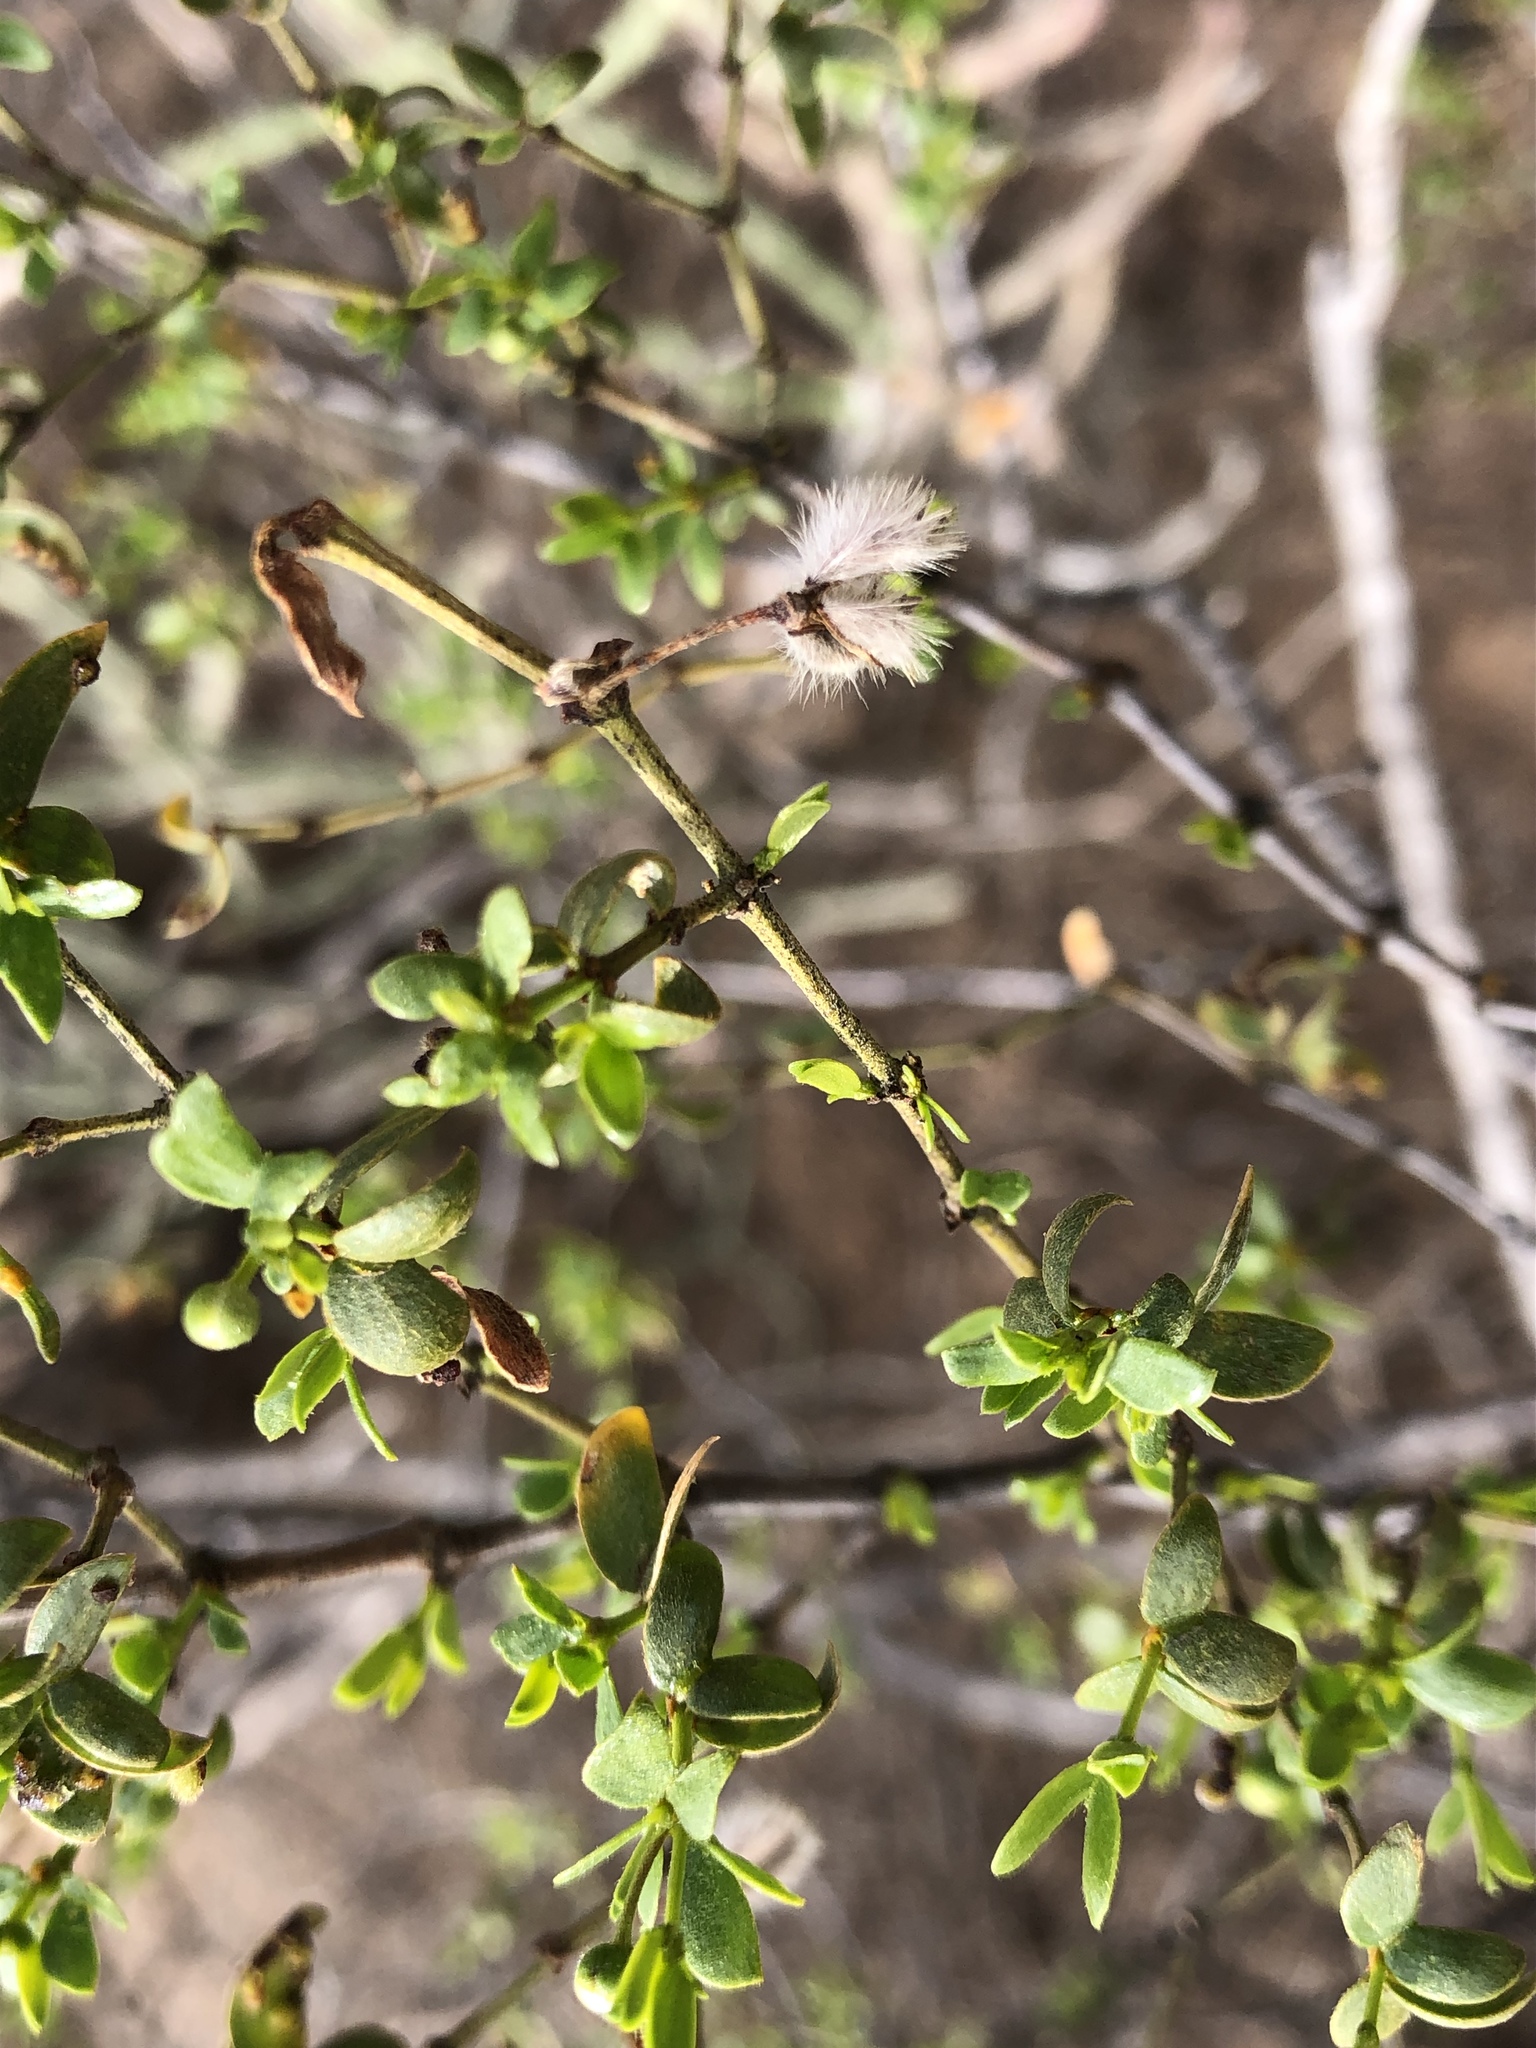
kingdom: Plantae
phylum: Tracheophyta
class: Magnoliopsida
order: Zygophyllales
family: Zygophyllaceae
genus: Larrea
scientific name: Larrea tridentata
